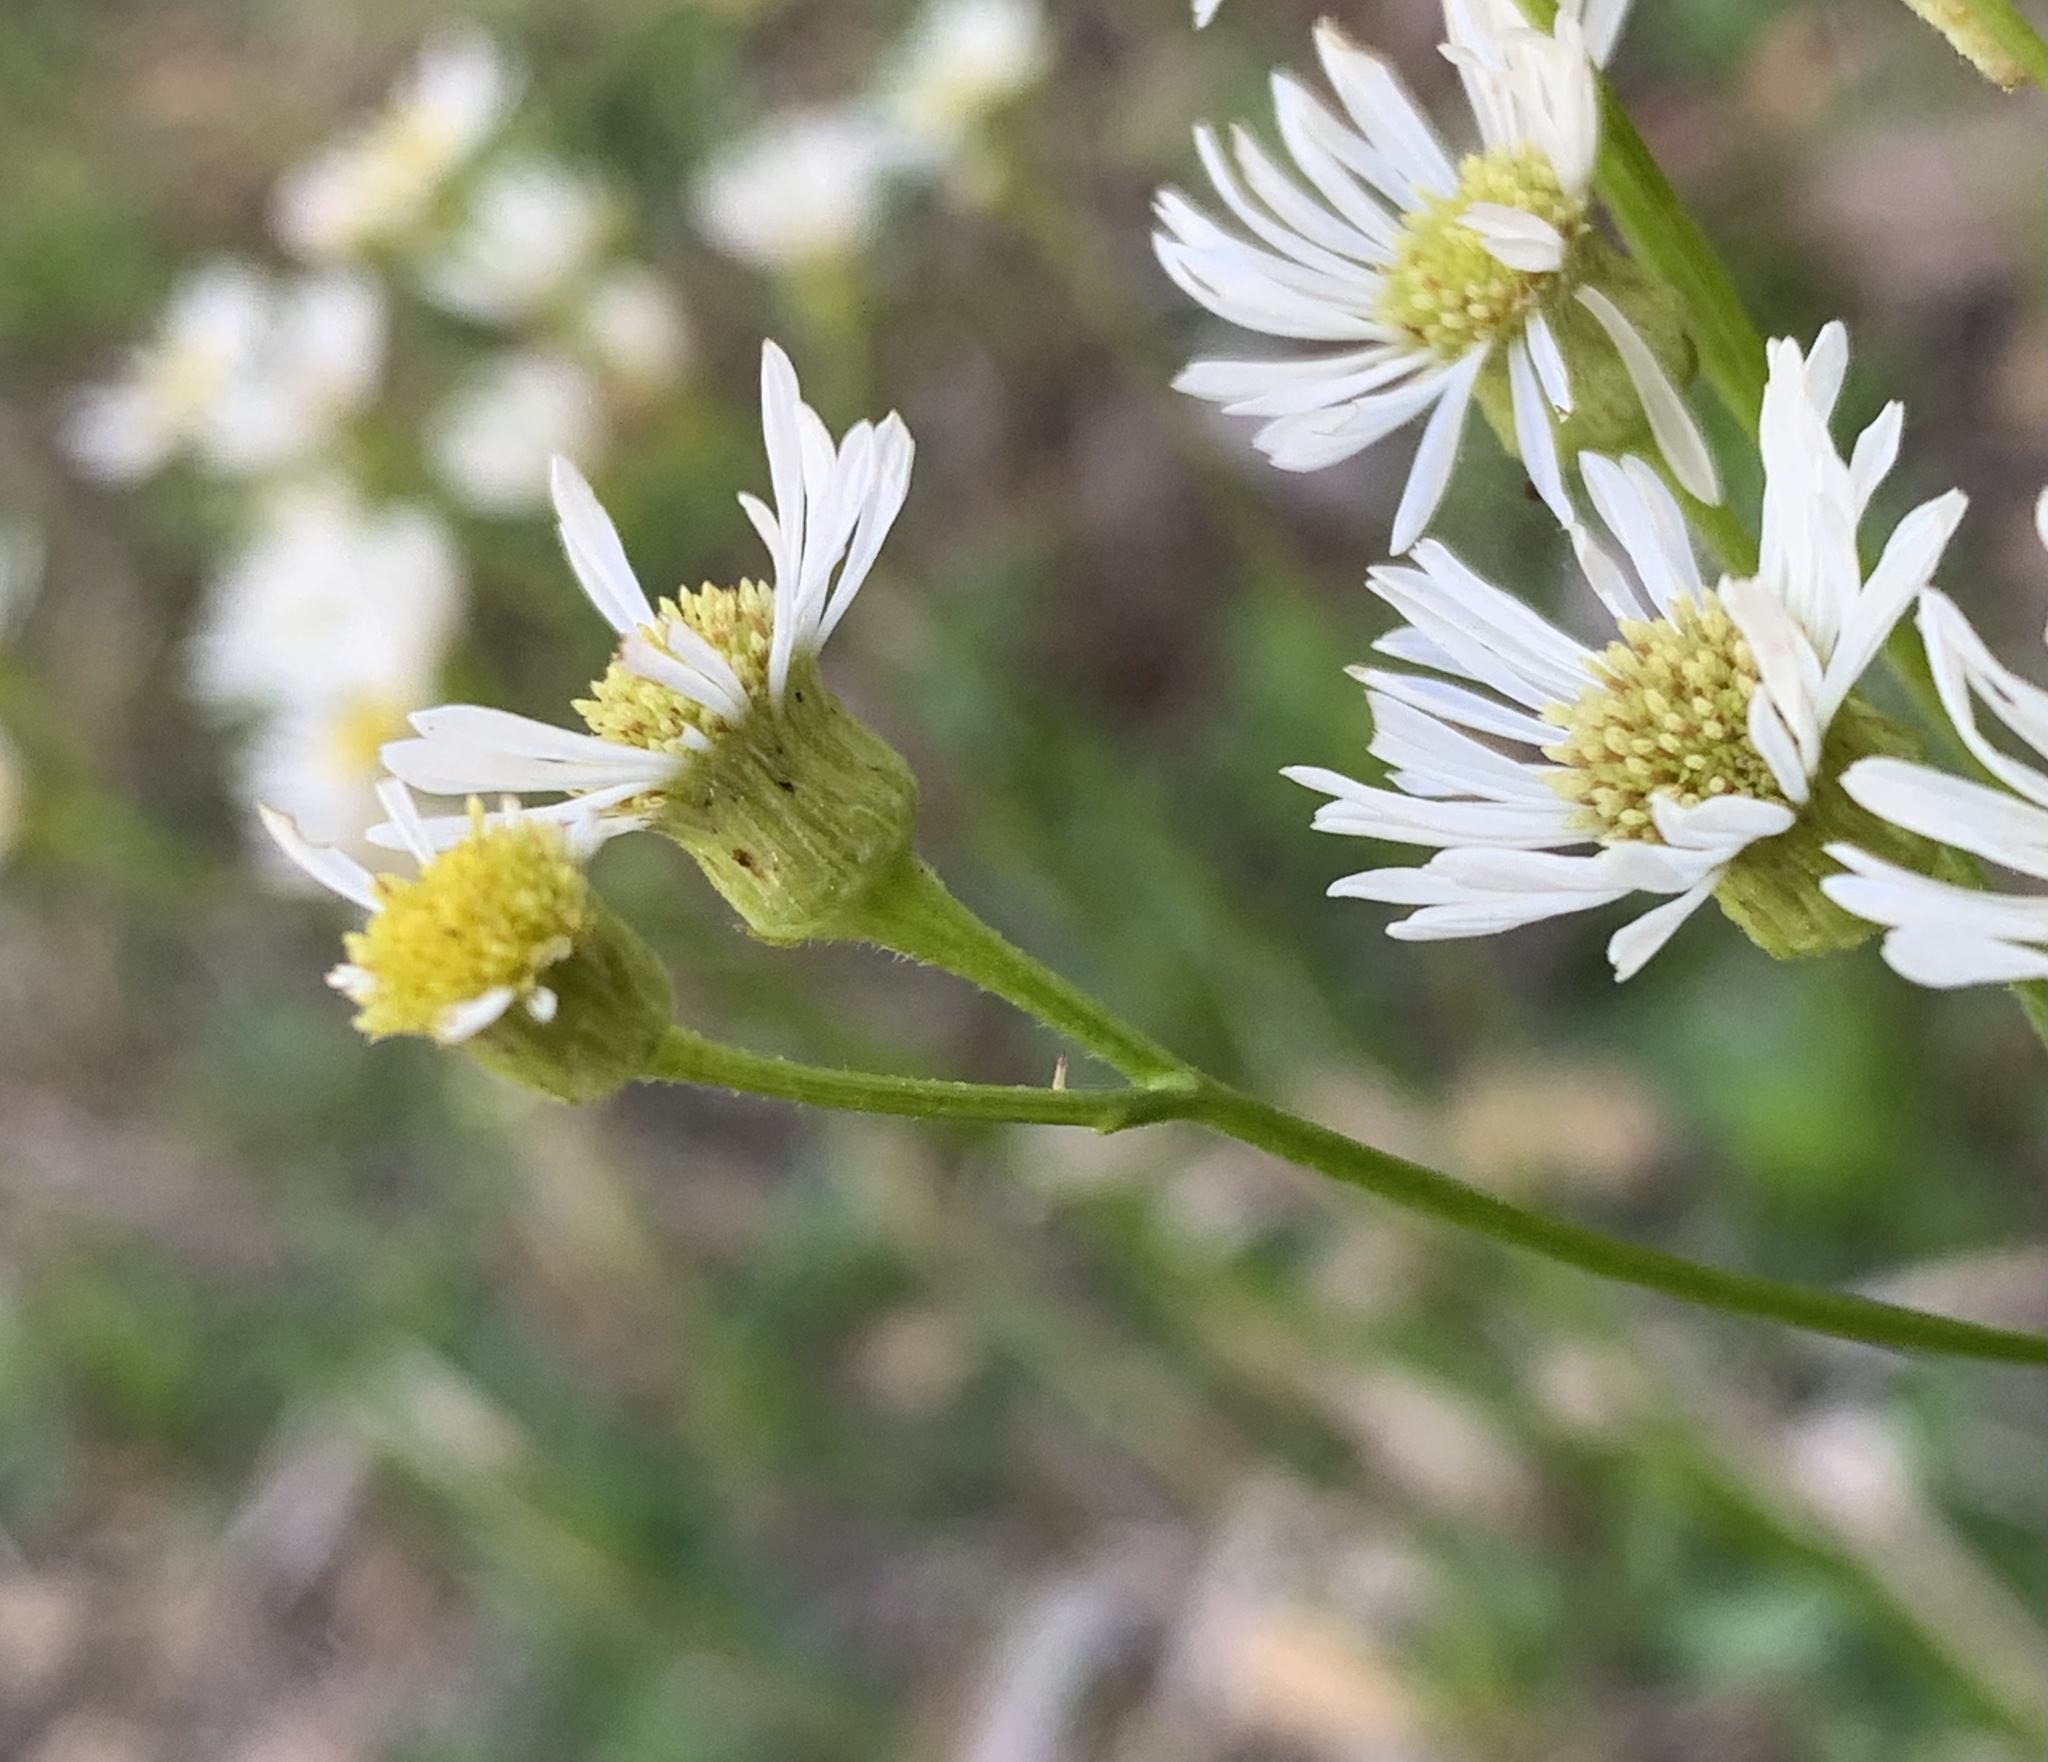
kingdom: Plantae
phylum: Tracheophyta
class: Magnoliopsida
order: Asterales
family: Asteraceae
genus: Erigeron
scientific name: Erigeron vernus
